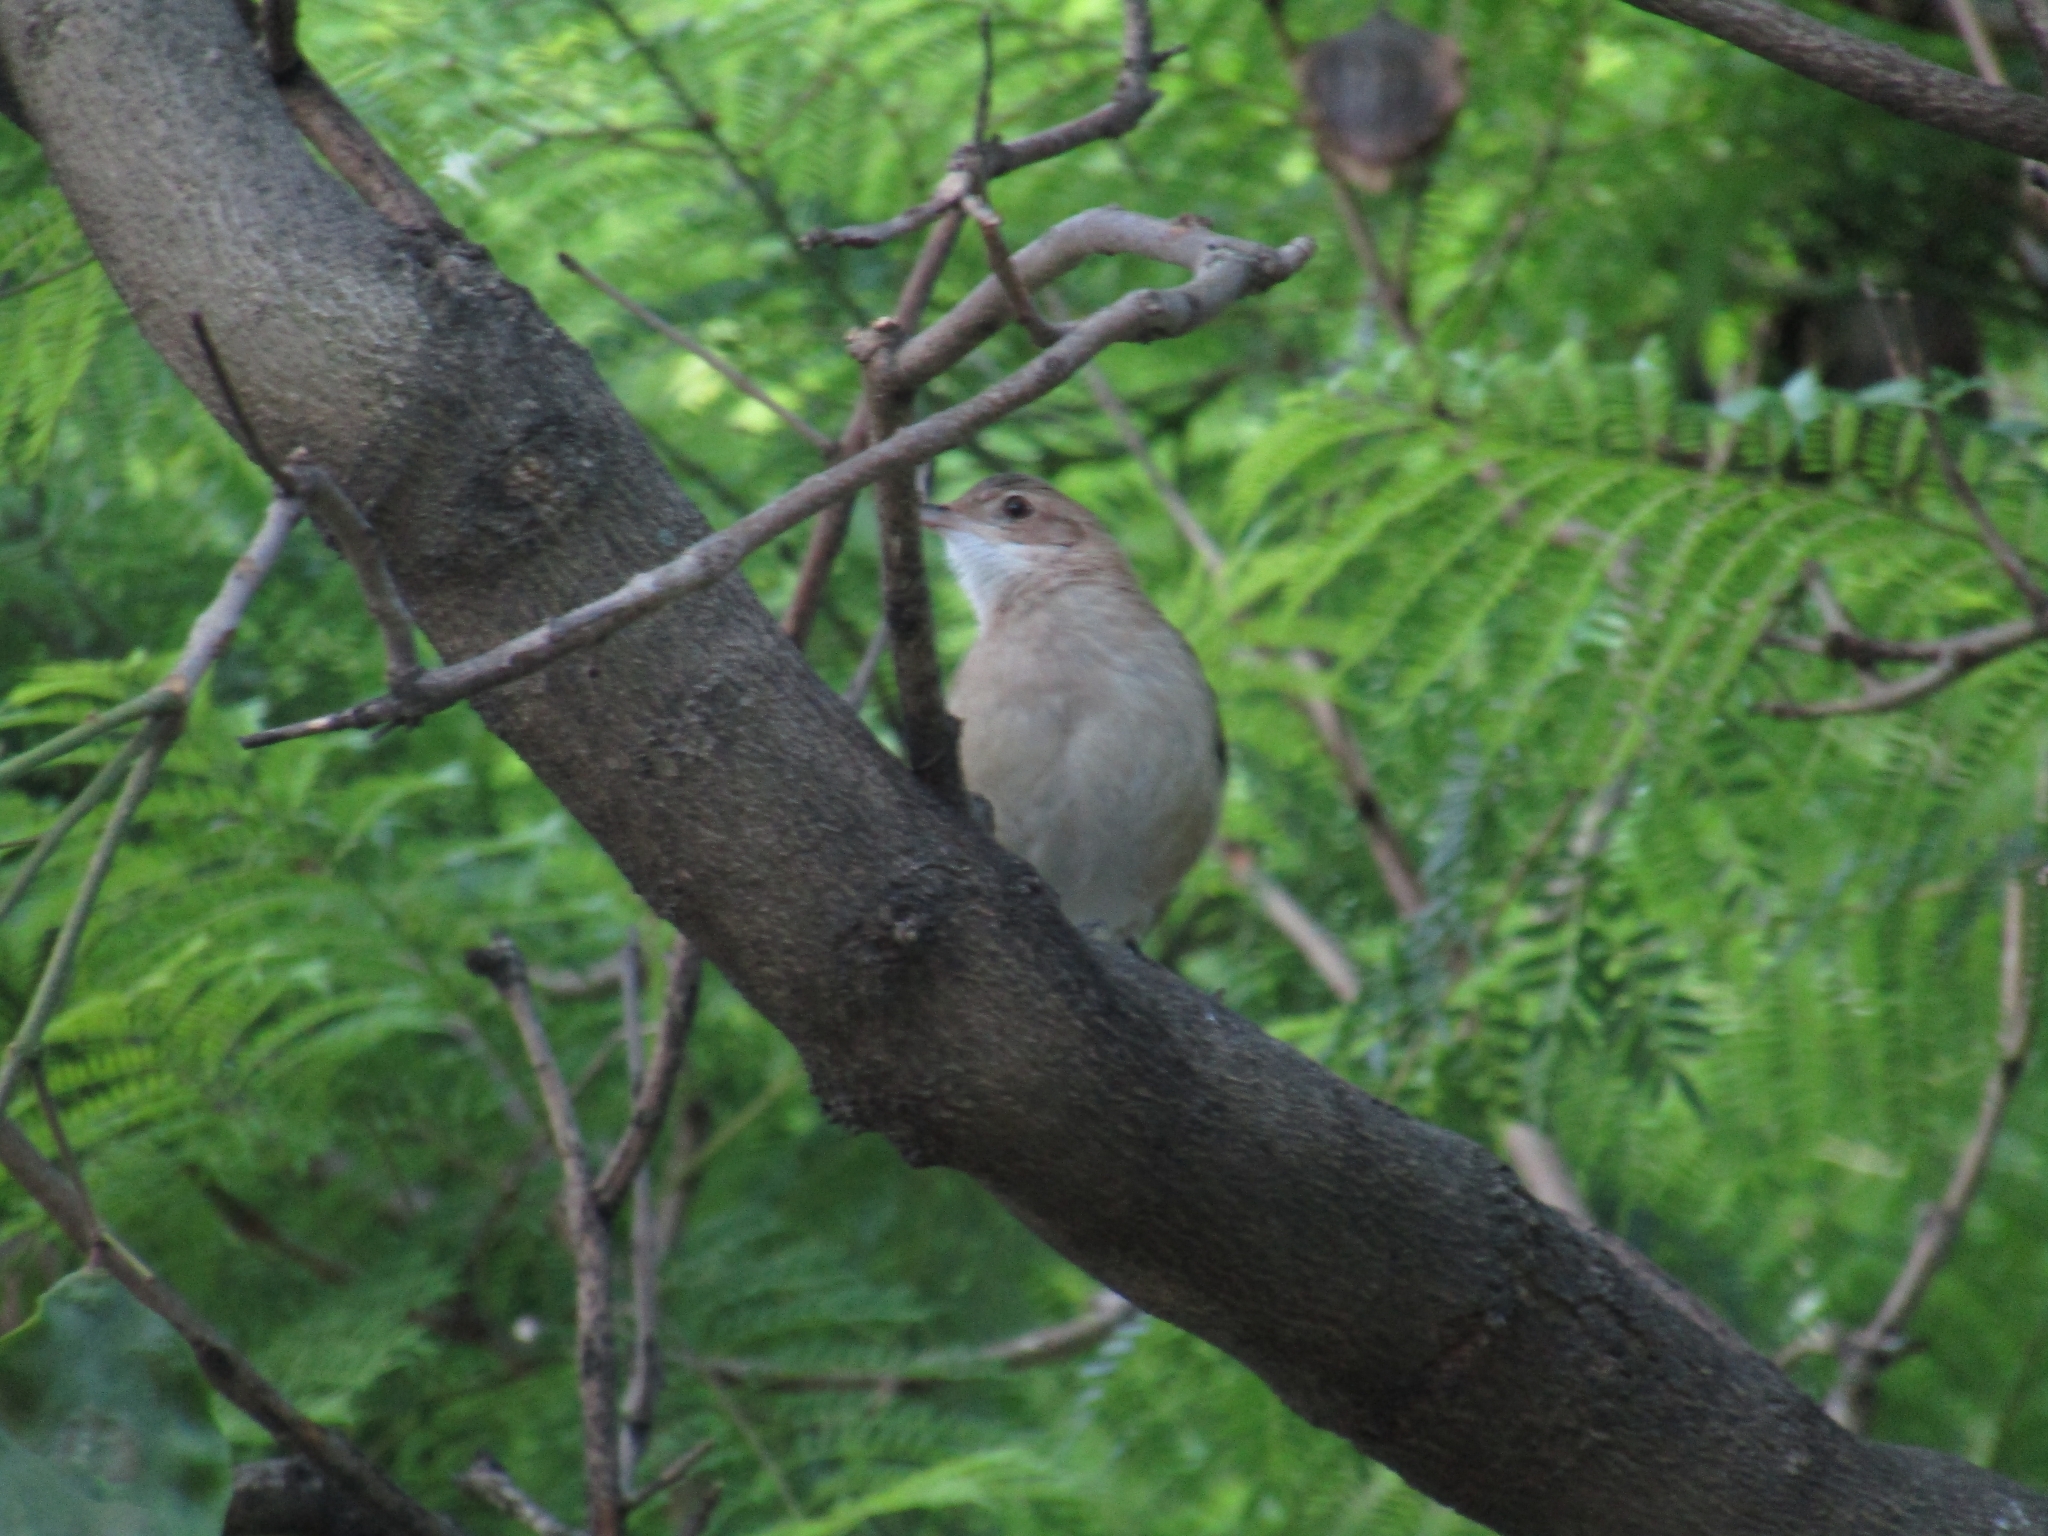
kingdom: Animalia
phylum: Chordata
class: Aves
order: Passeriformes
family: Furnariidae
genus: Furnarius
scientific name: Furnarius rufus
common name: Rufous hornero
